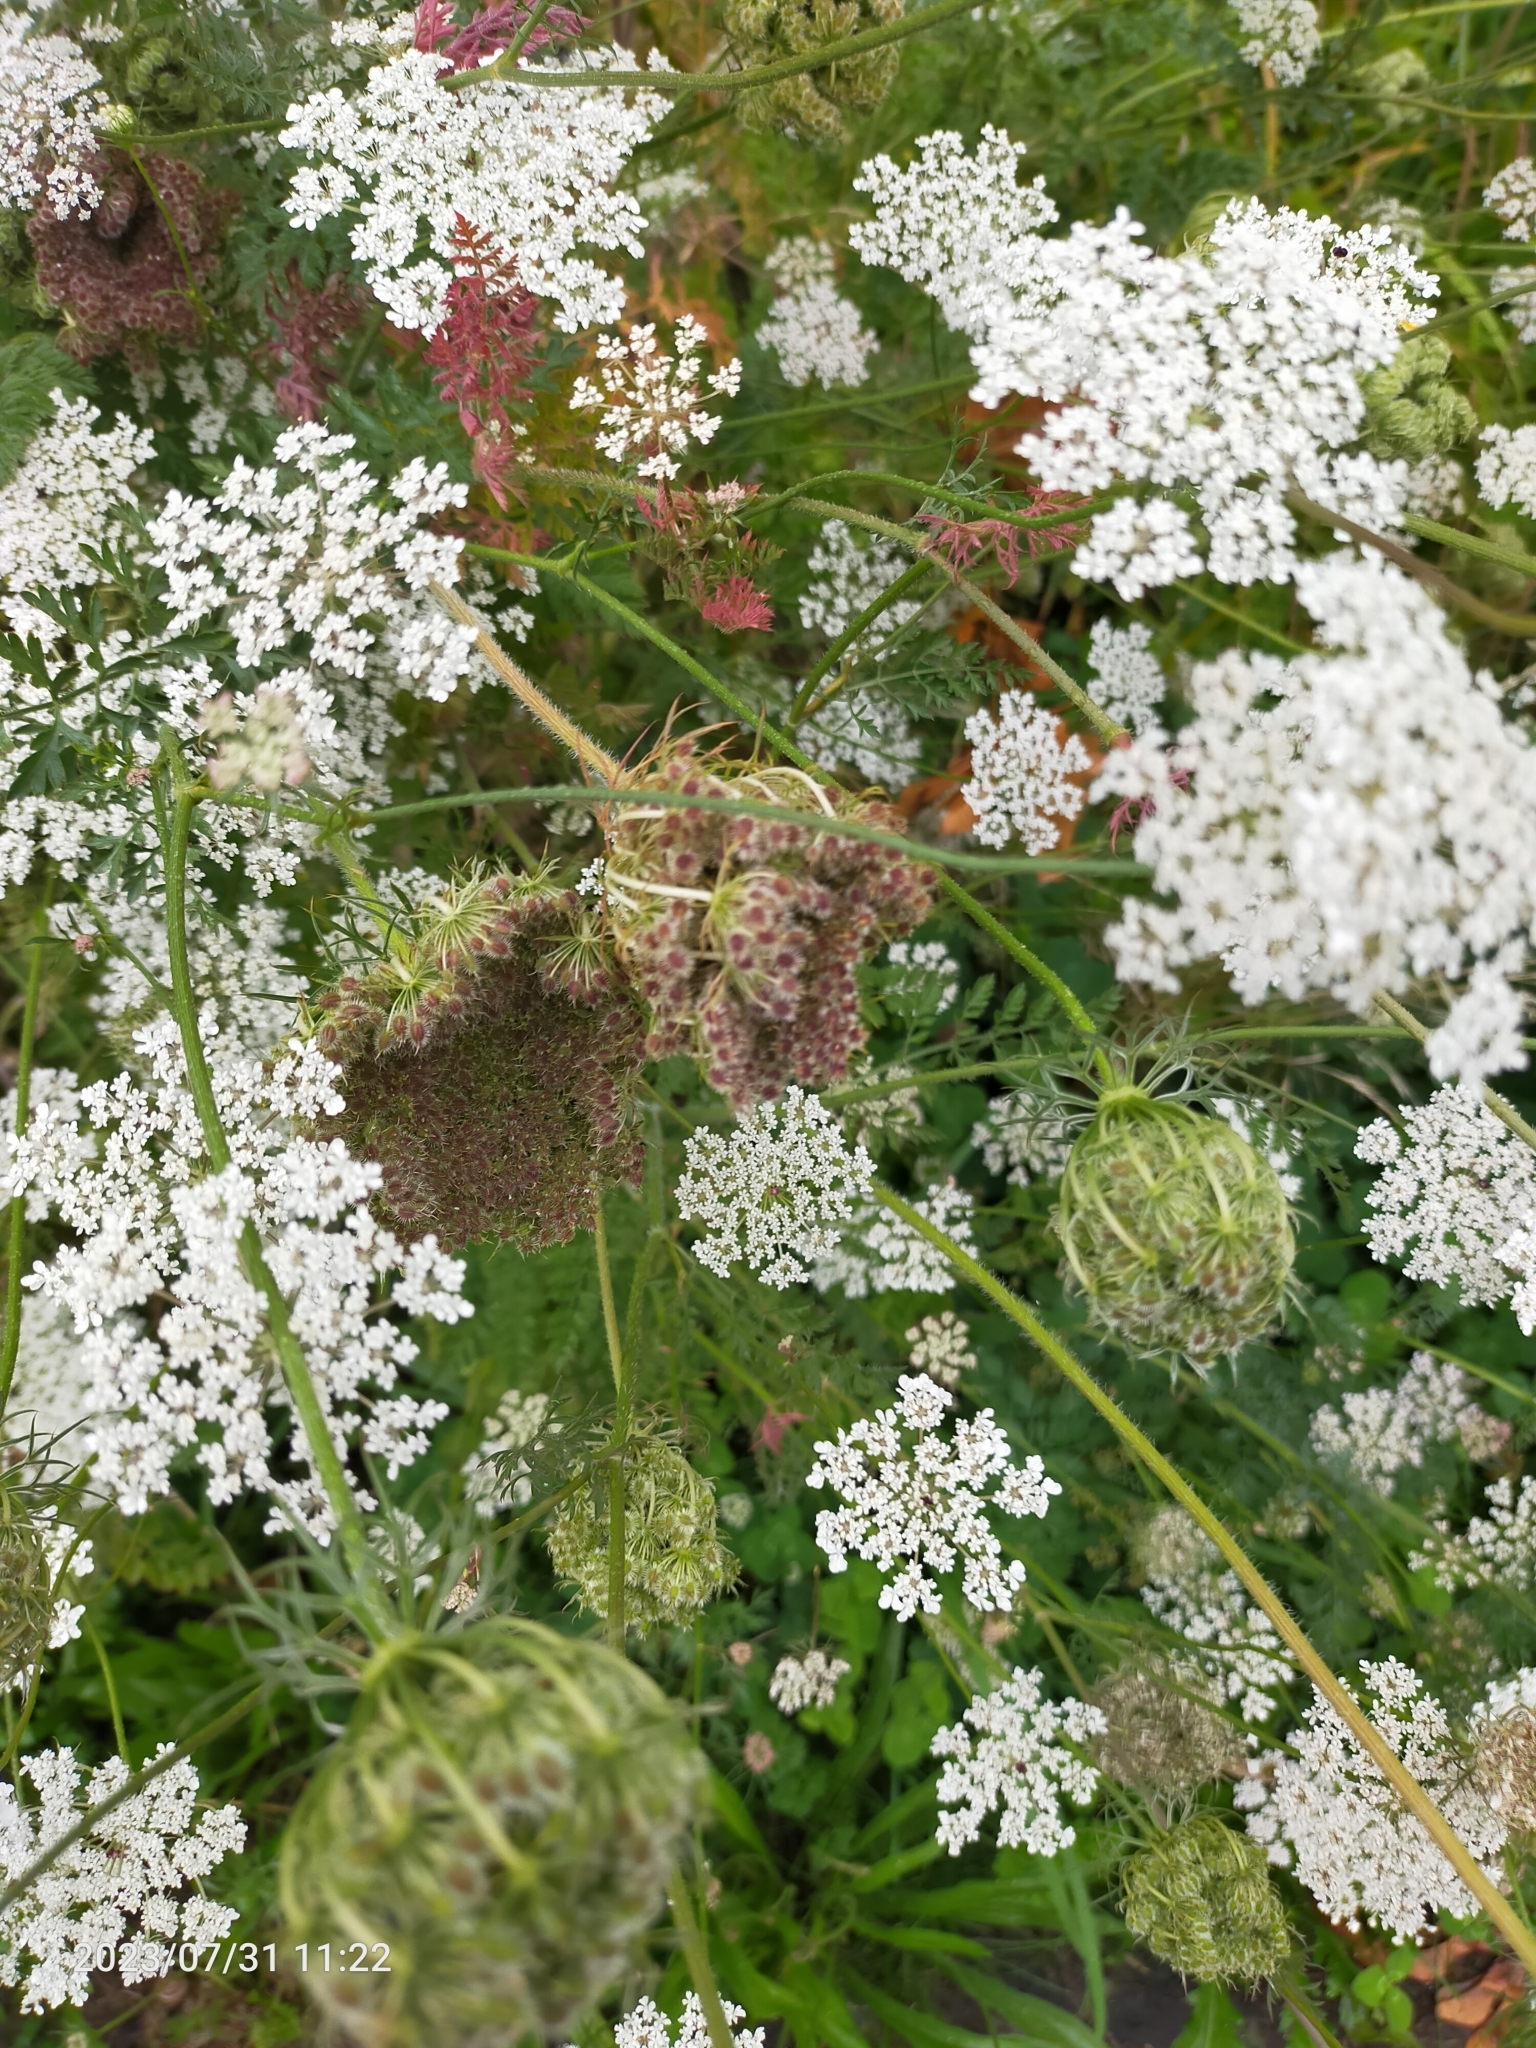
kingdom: Plantae
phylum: Tracheophyta
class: Magnoliopsida
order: Apiales
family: Apiaceae
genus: Daucus
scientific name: Daucus carota
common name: Wild carrot
